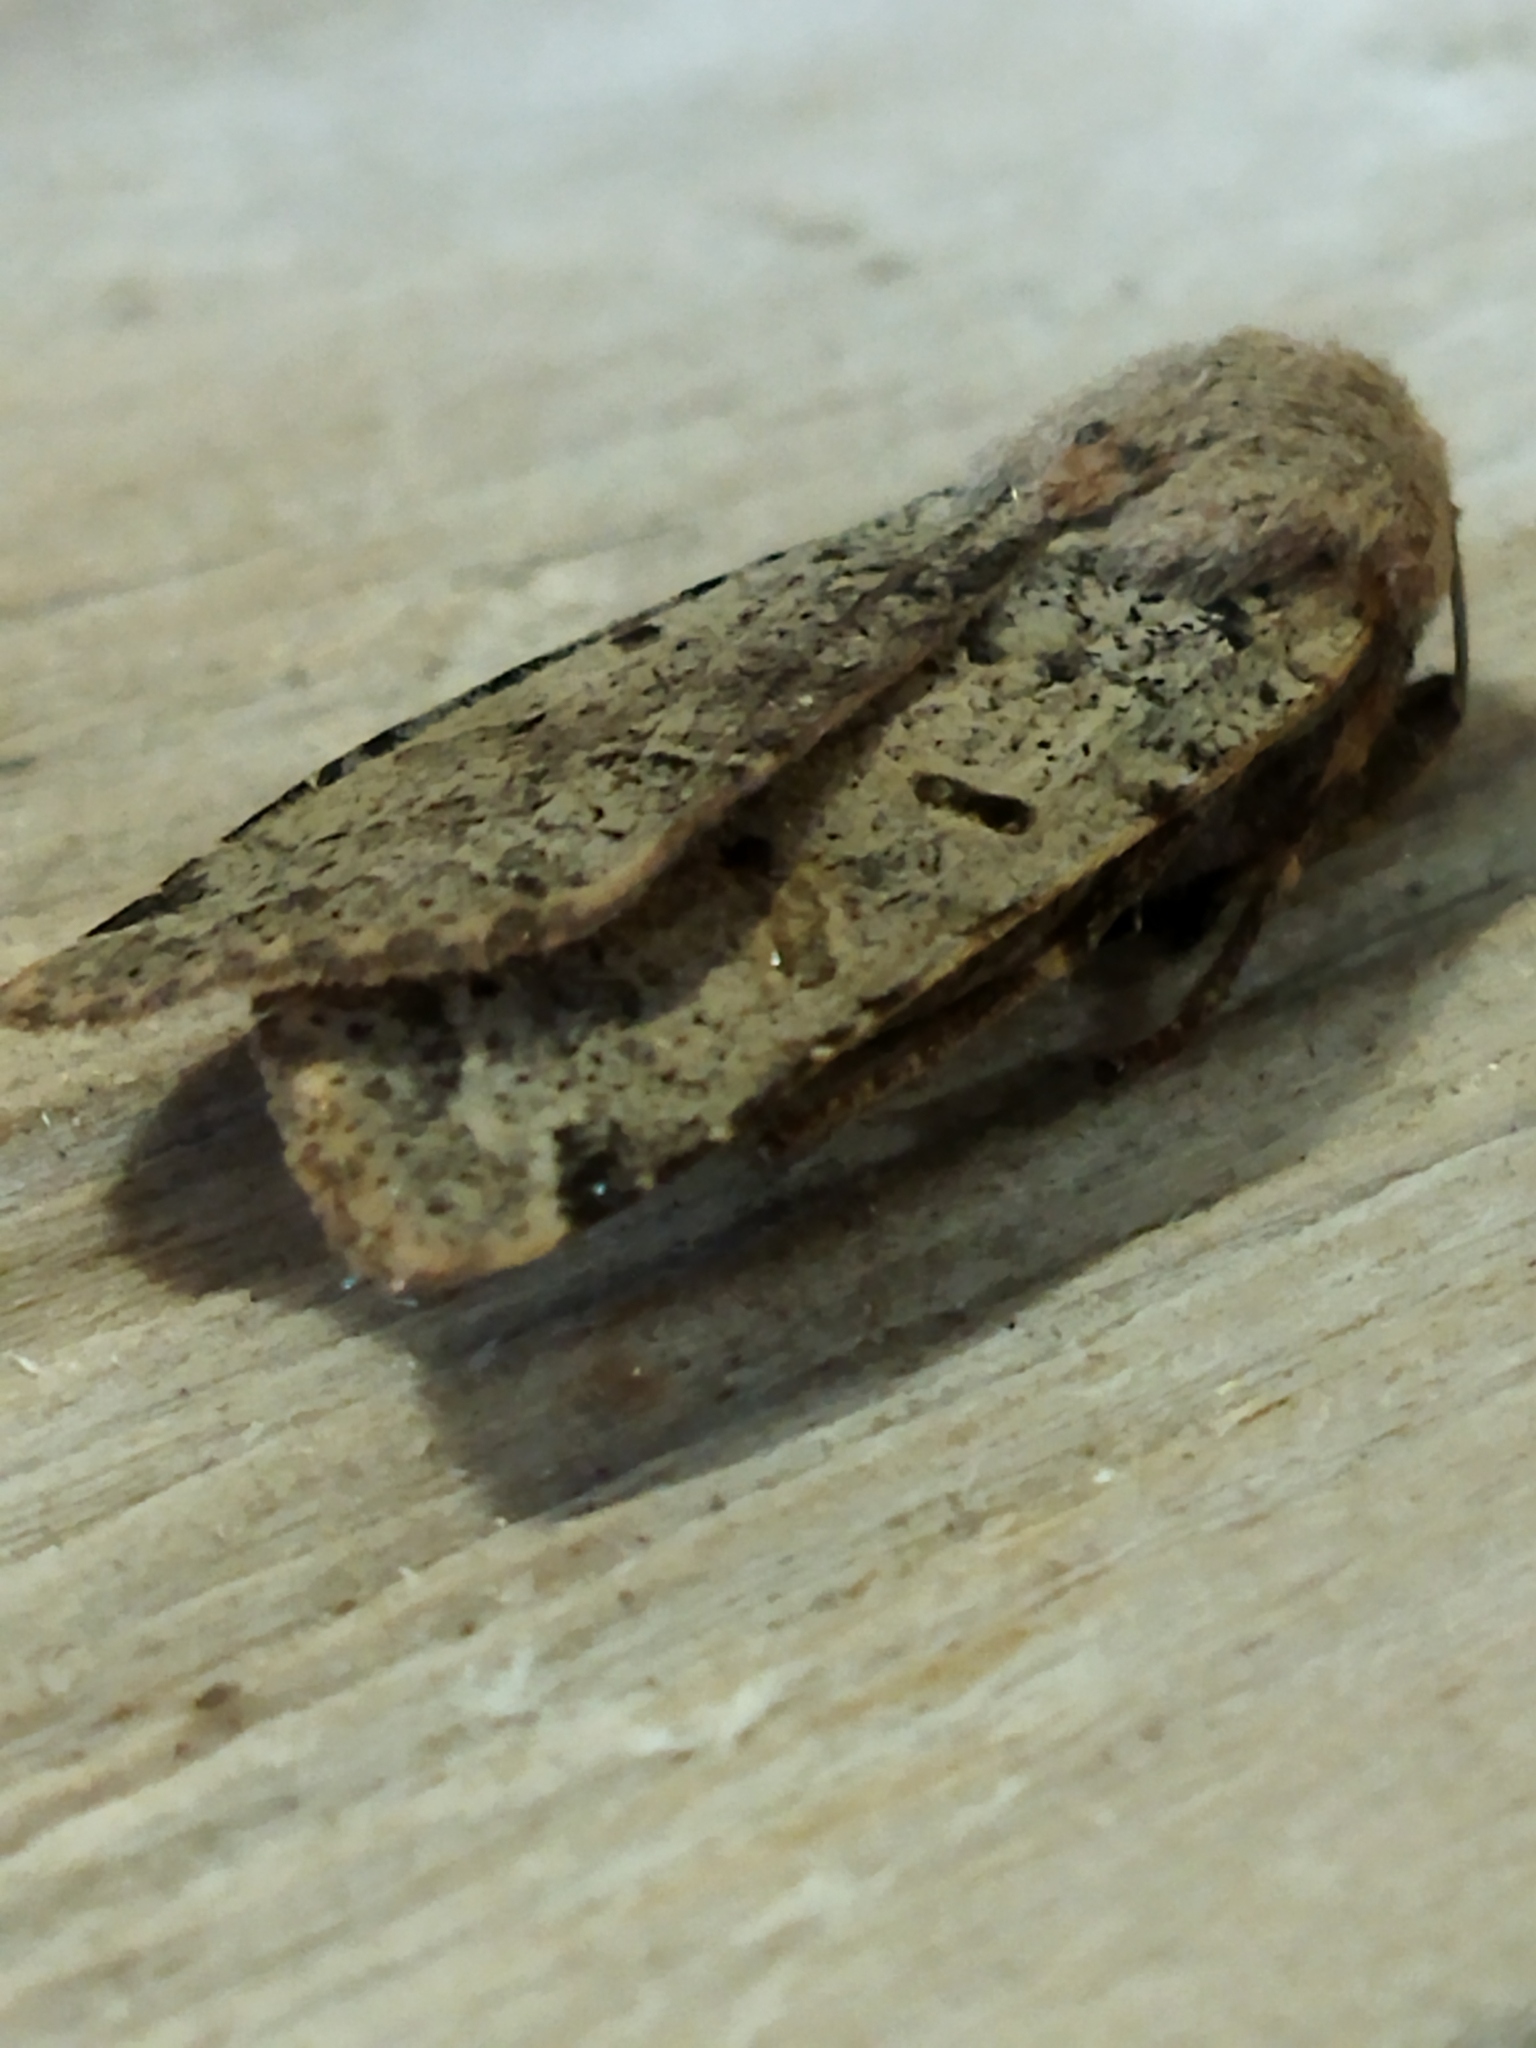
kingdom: Animalia
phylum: Arthropoda
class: Insecta
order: Lepidoptera
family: Noctuidae
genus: Agrochola
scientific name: Agrochola lychnidis
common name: Beaded chestnut
